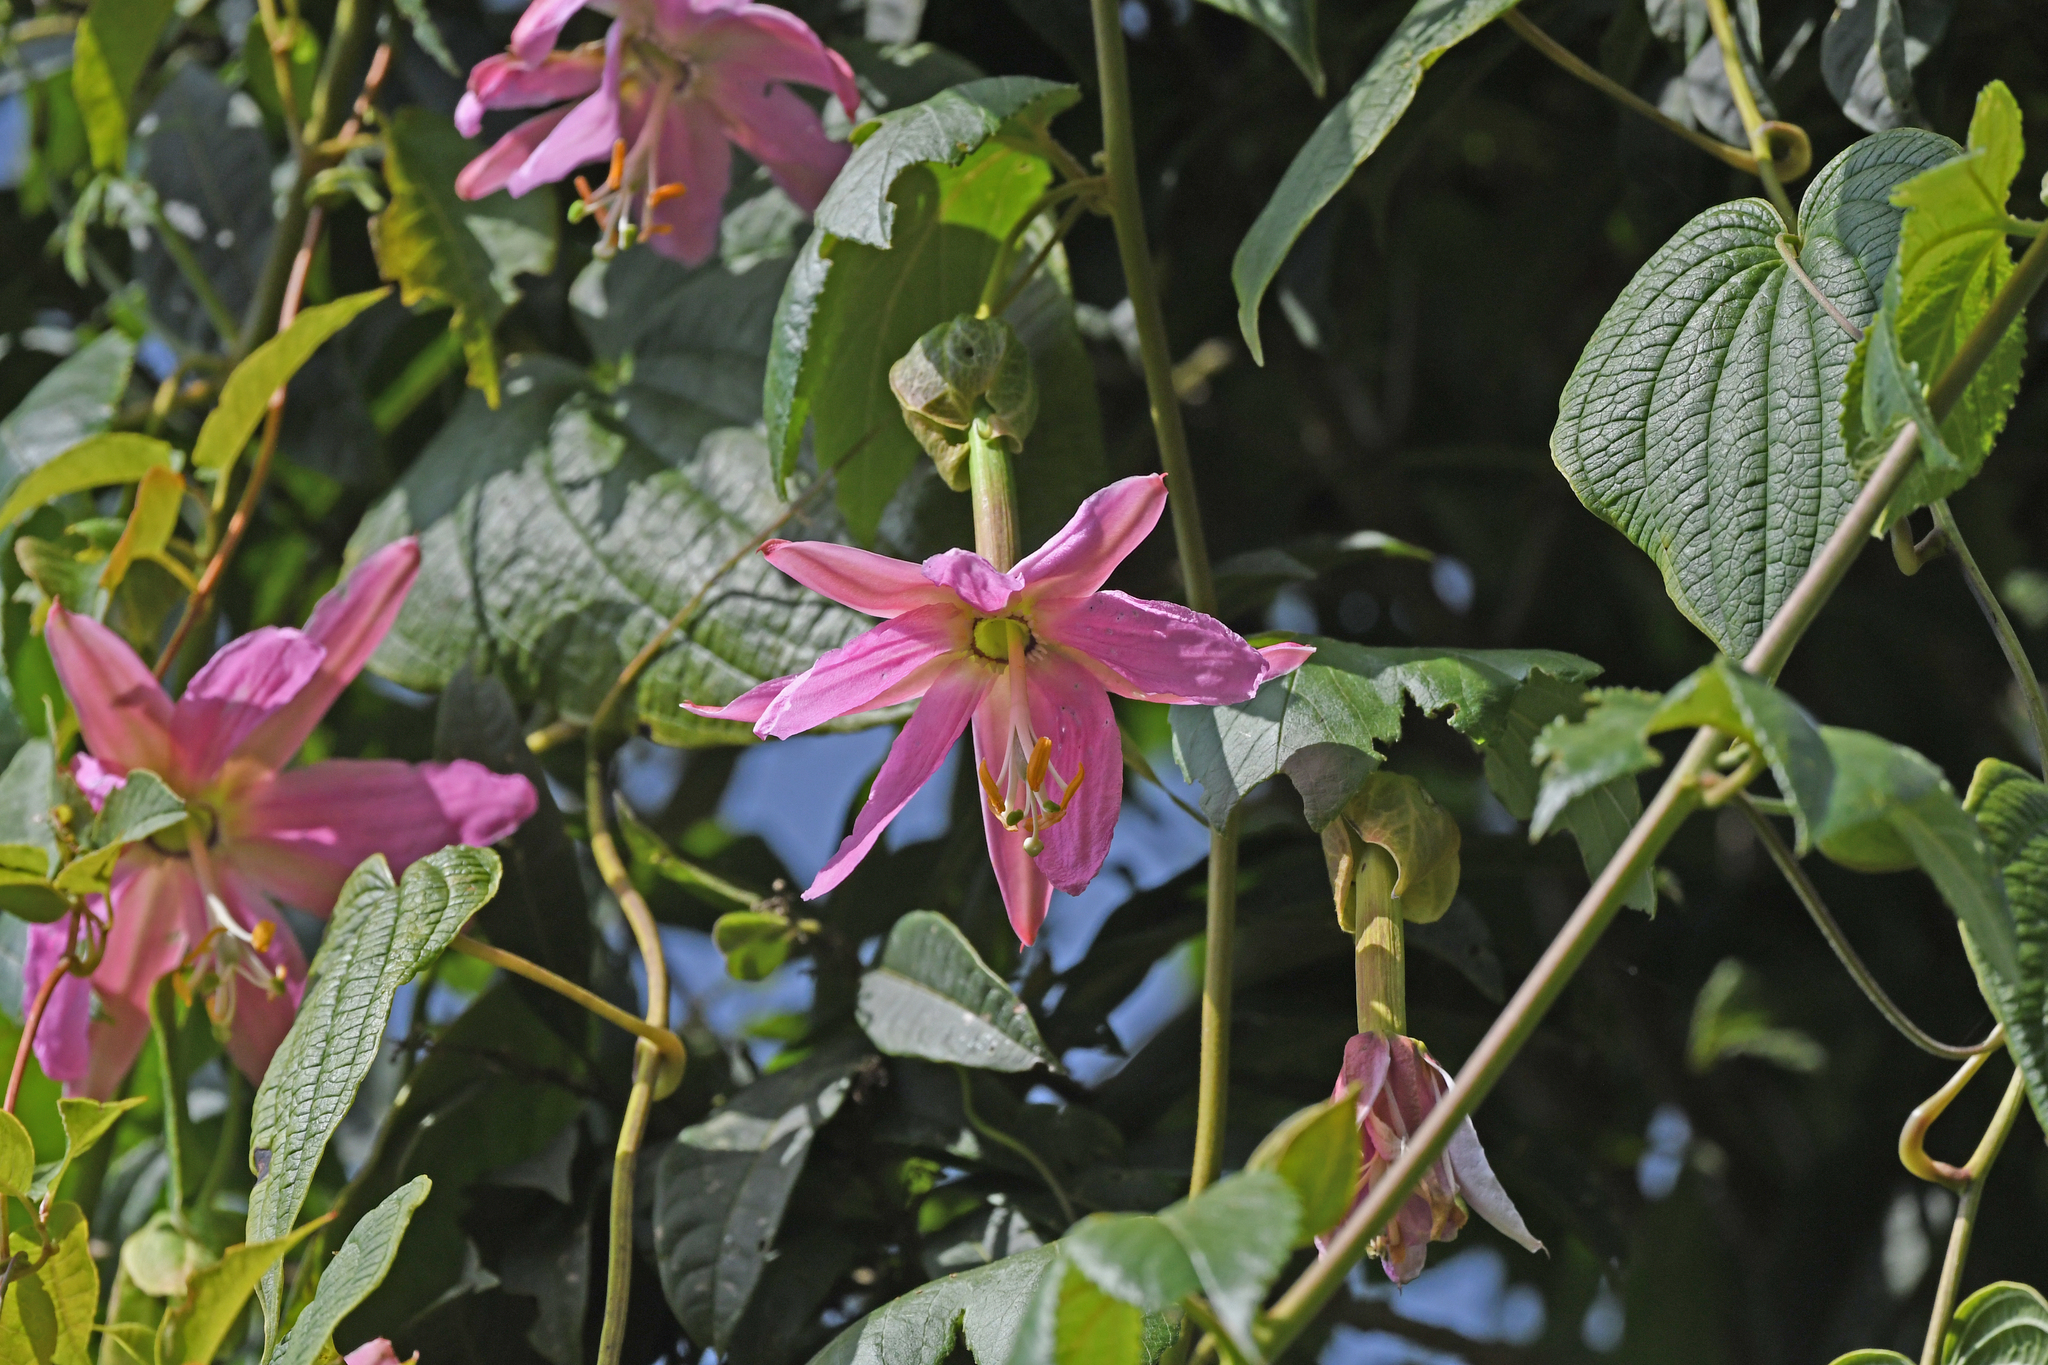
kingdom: Plantae
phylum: Tracheophyta
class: Magnoliopsida
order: Malpighiales
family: Passifloraceae
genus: Passiflora
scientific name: Passiflora tarminiana
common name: Banana poka
